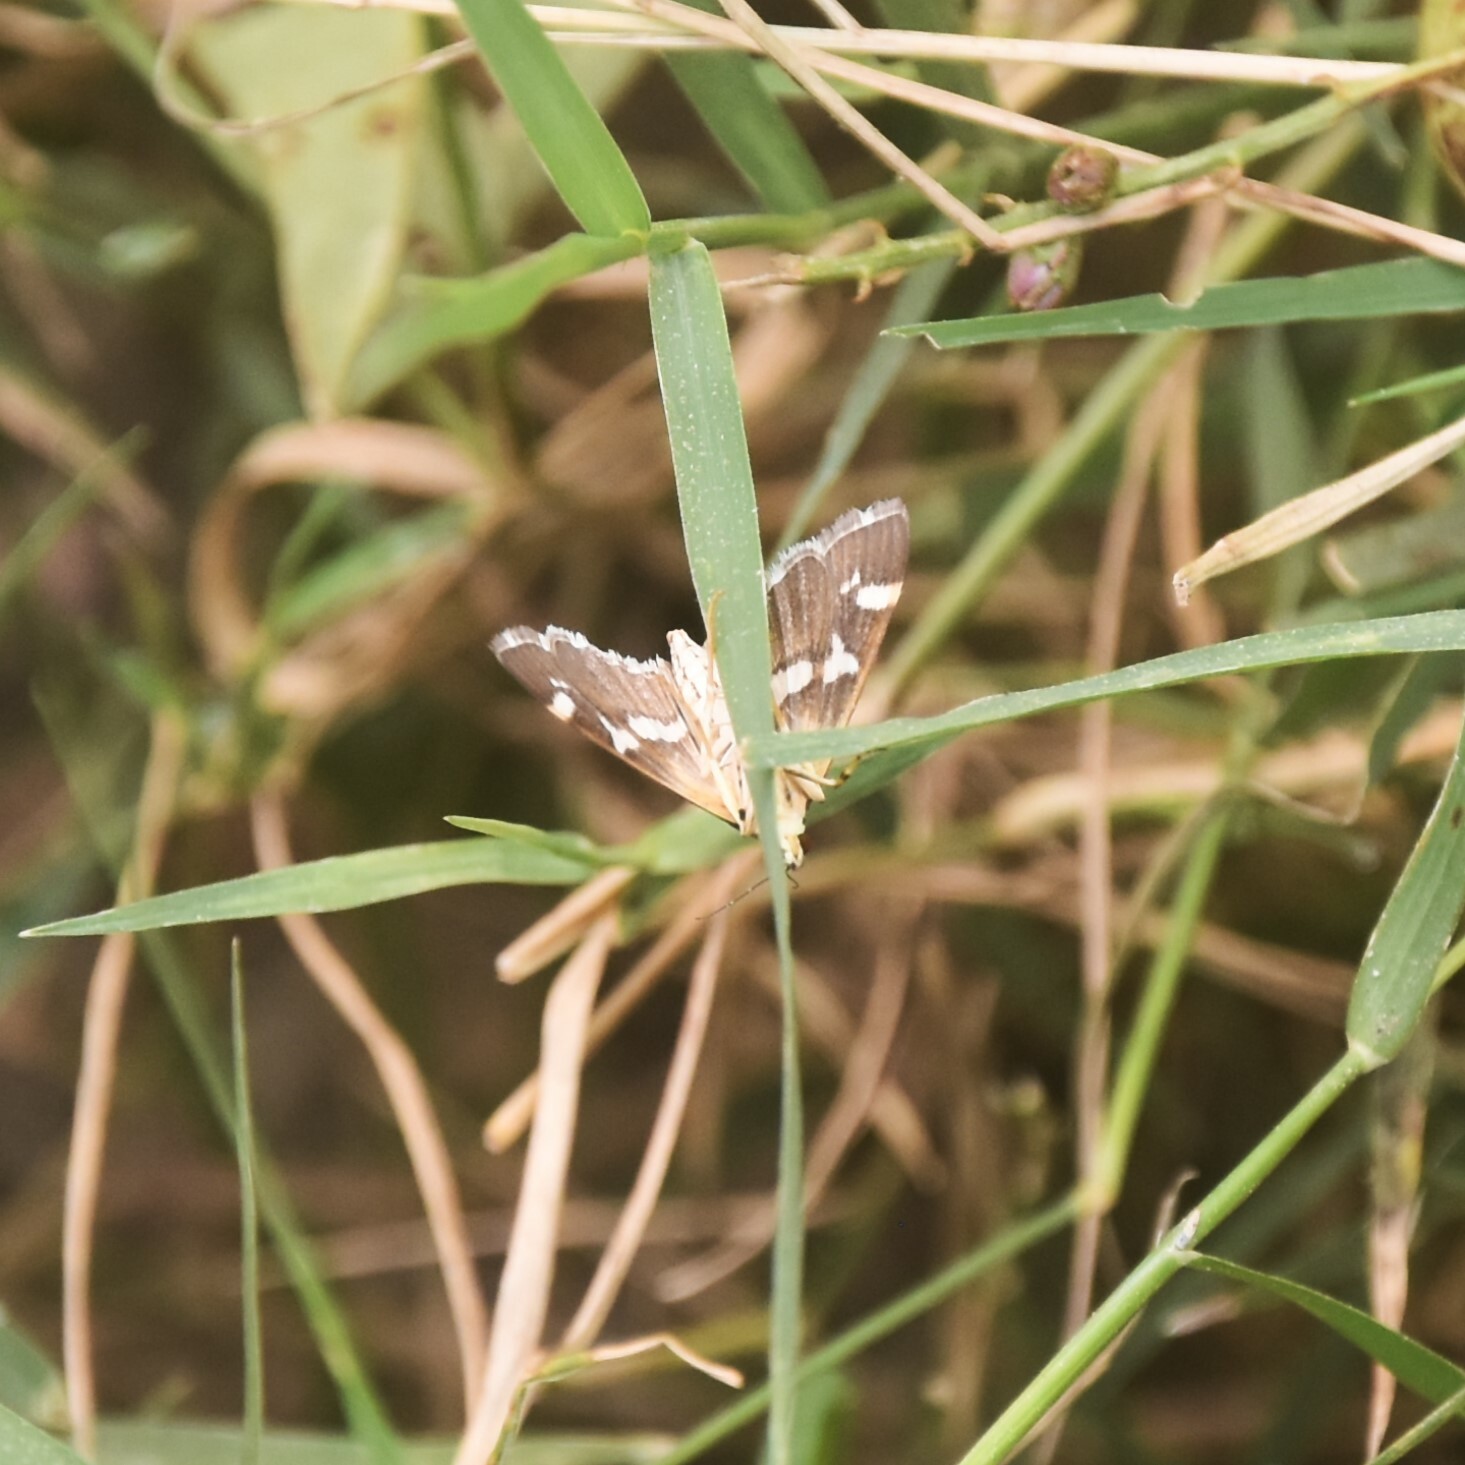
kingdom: Animalia
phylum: Arthropoda
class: Insecta
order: Lepidoptera
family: Crambidae
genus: Spoladea
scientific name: Spoladea recurvalis
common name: Beet webworm moth
